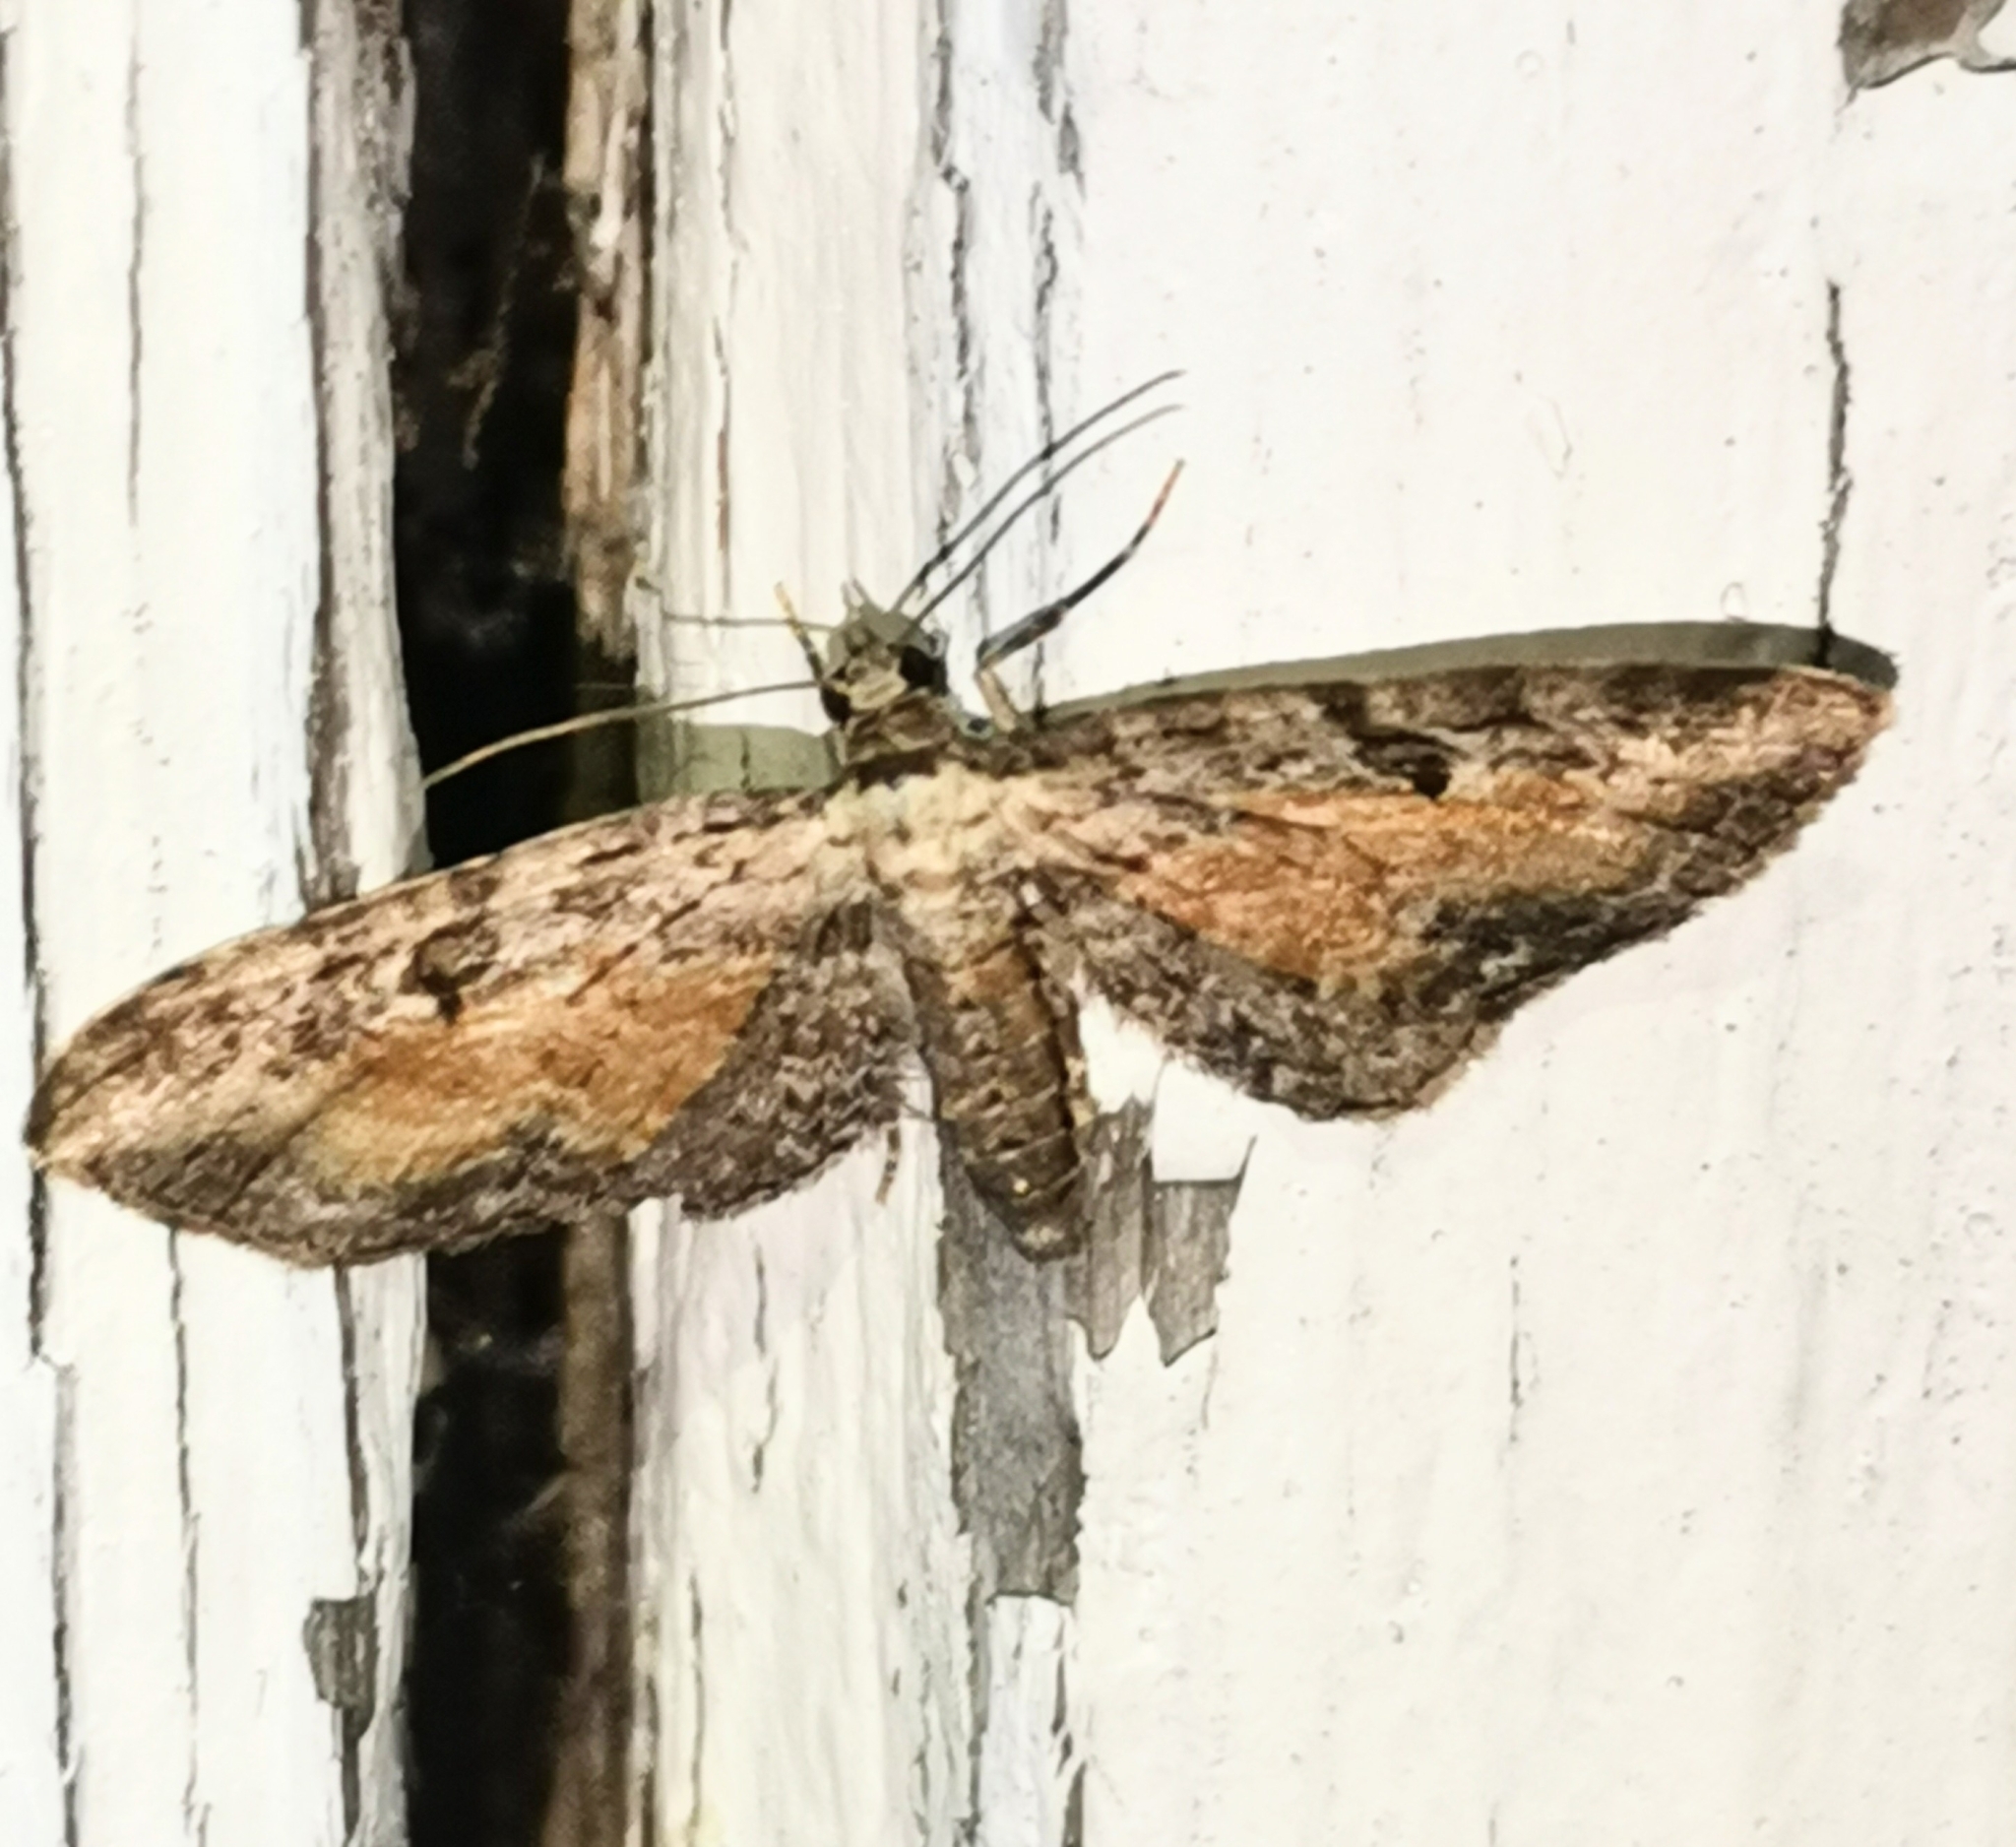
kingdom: Animalia
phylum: Arthropoda
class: Insecta
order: Lepidoptera
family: Geometridae
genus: Eupithecia
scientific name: Eupithecia icterata
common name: Tawny speckled pug
